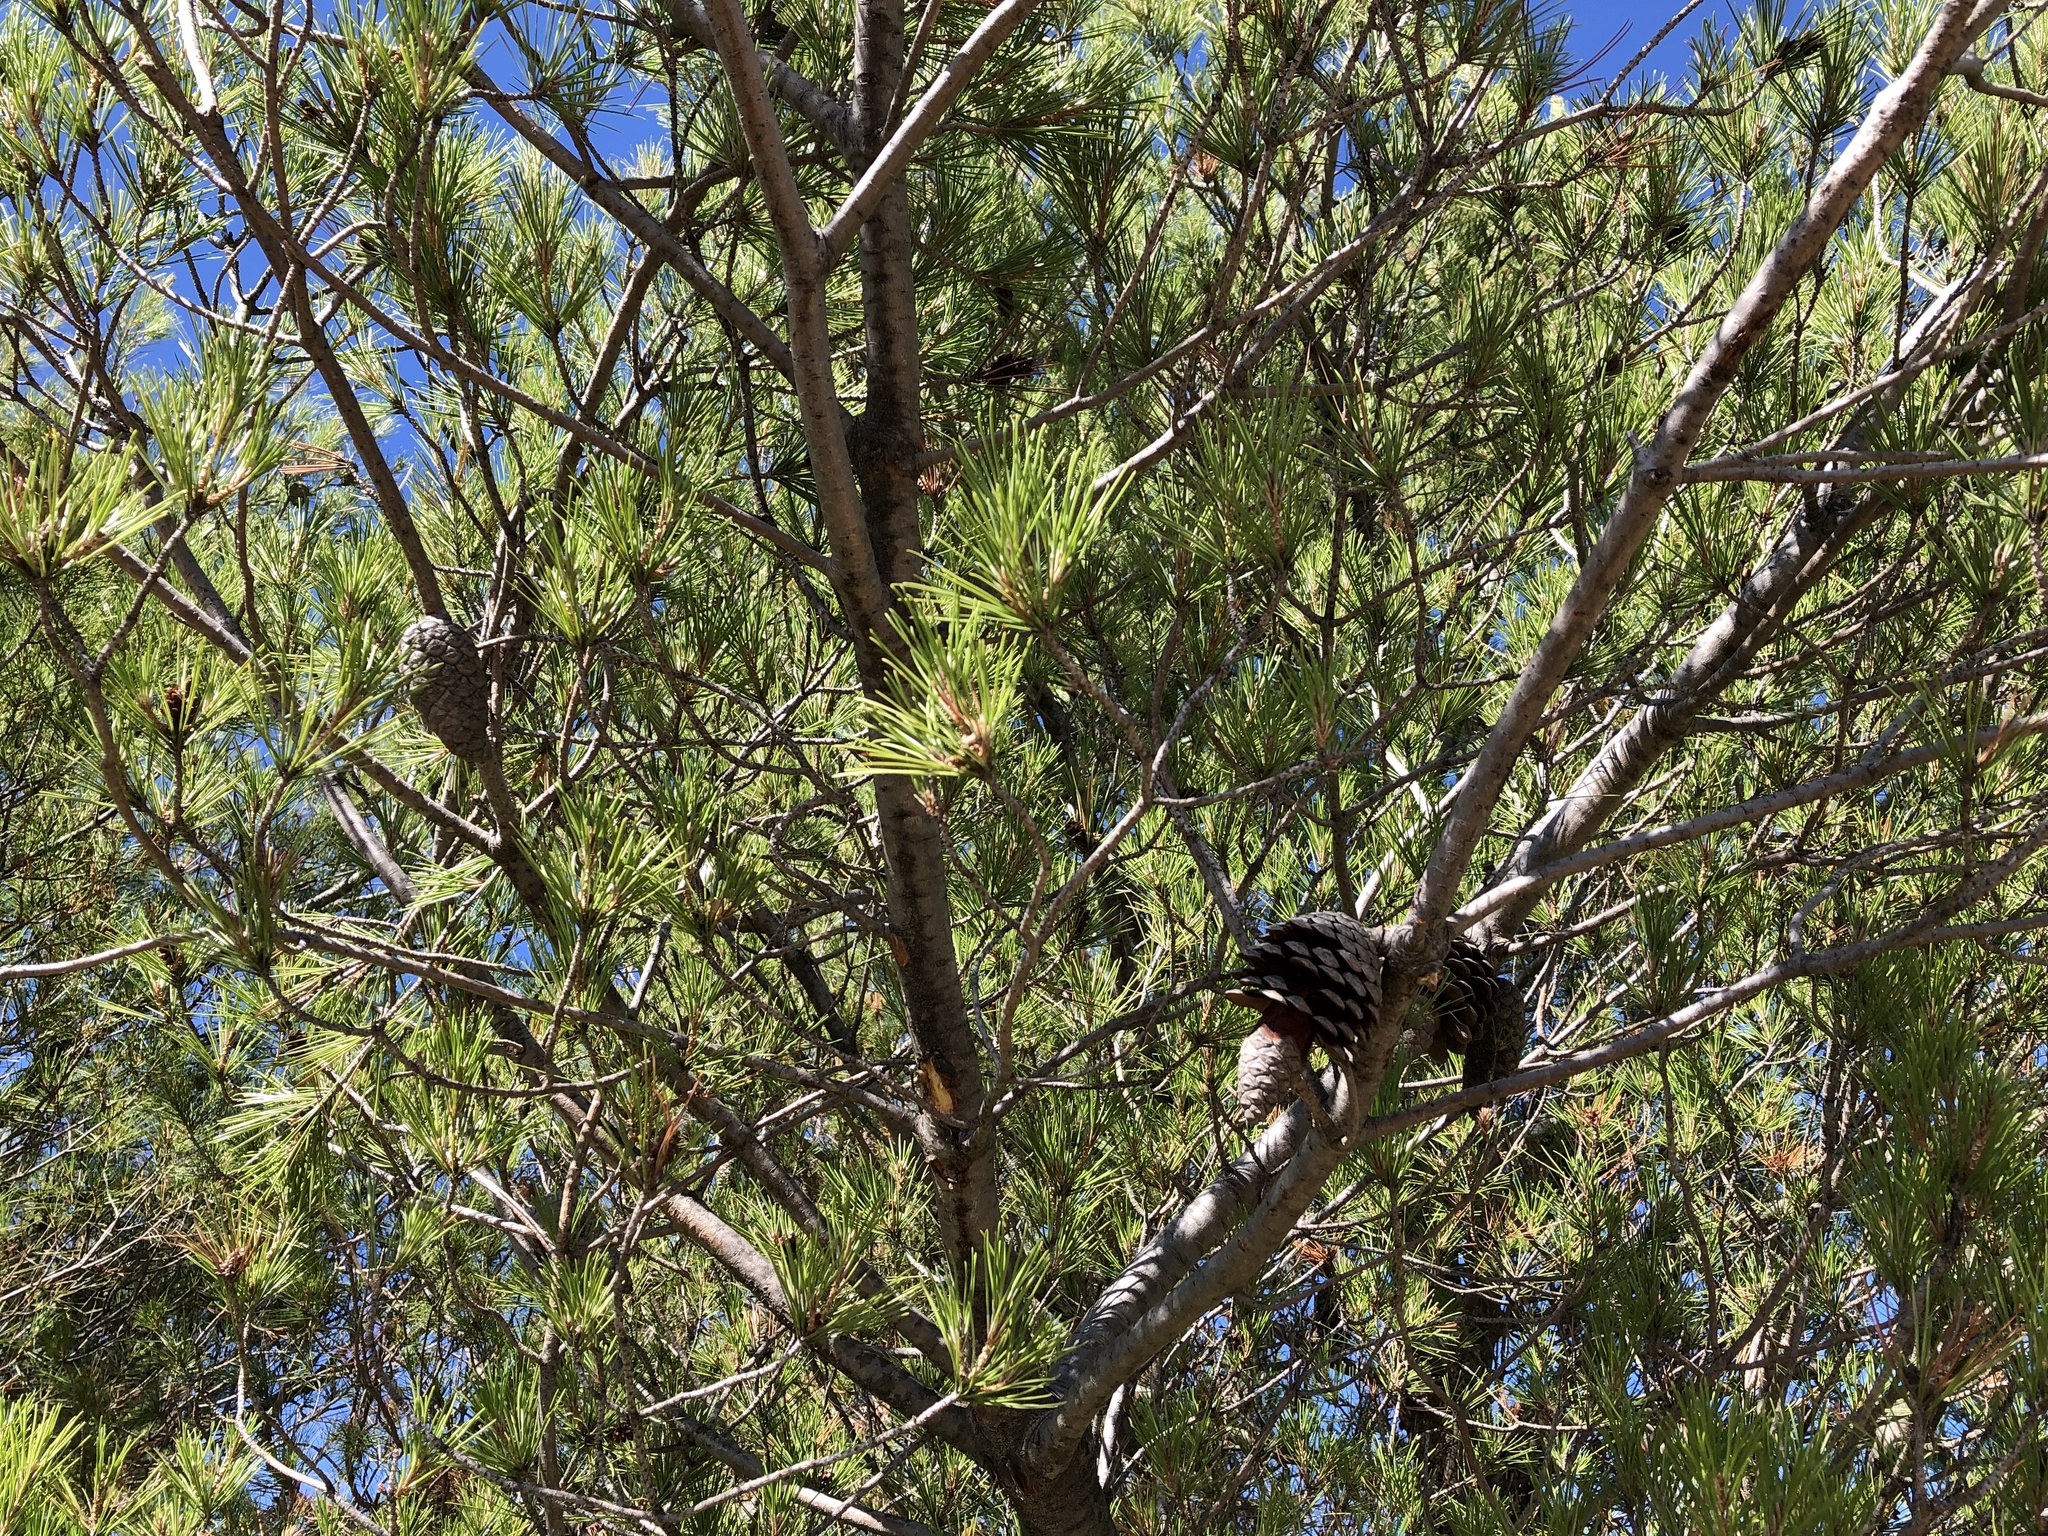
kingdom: Plantae
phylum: Tracheophyta
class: Pinopsida
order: Pinales
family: Pinaceae
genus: Pinus
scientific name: Pinus halepensis
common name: Aleppo pine
